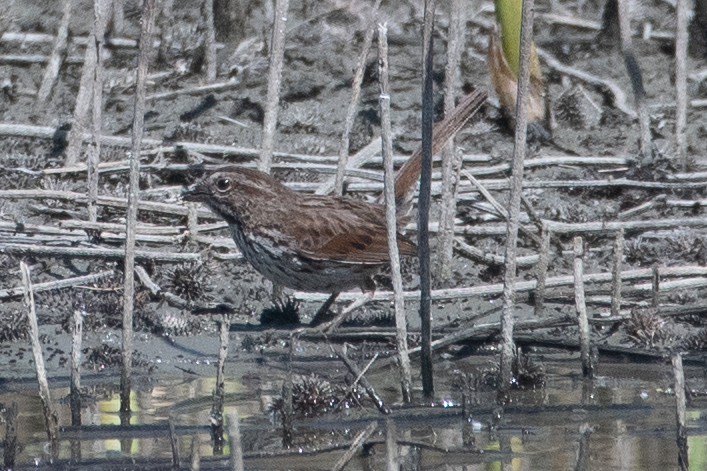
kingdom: Animalia
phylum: Chordata
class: Aves
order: Passeriformes
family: Passerellidae
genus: Melospiza
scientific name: Melospiza melodia
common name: Song sparrow
